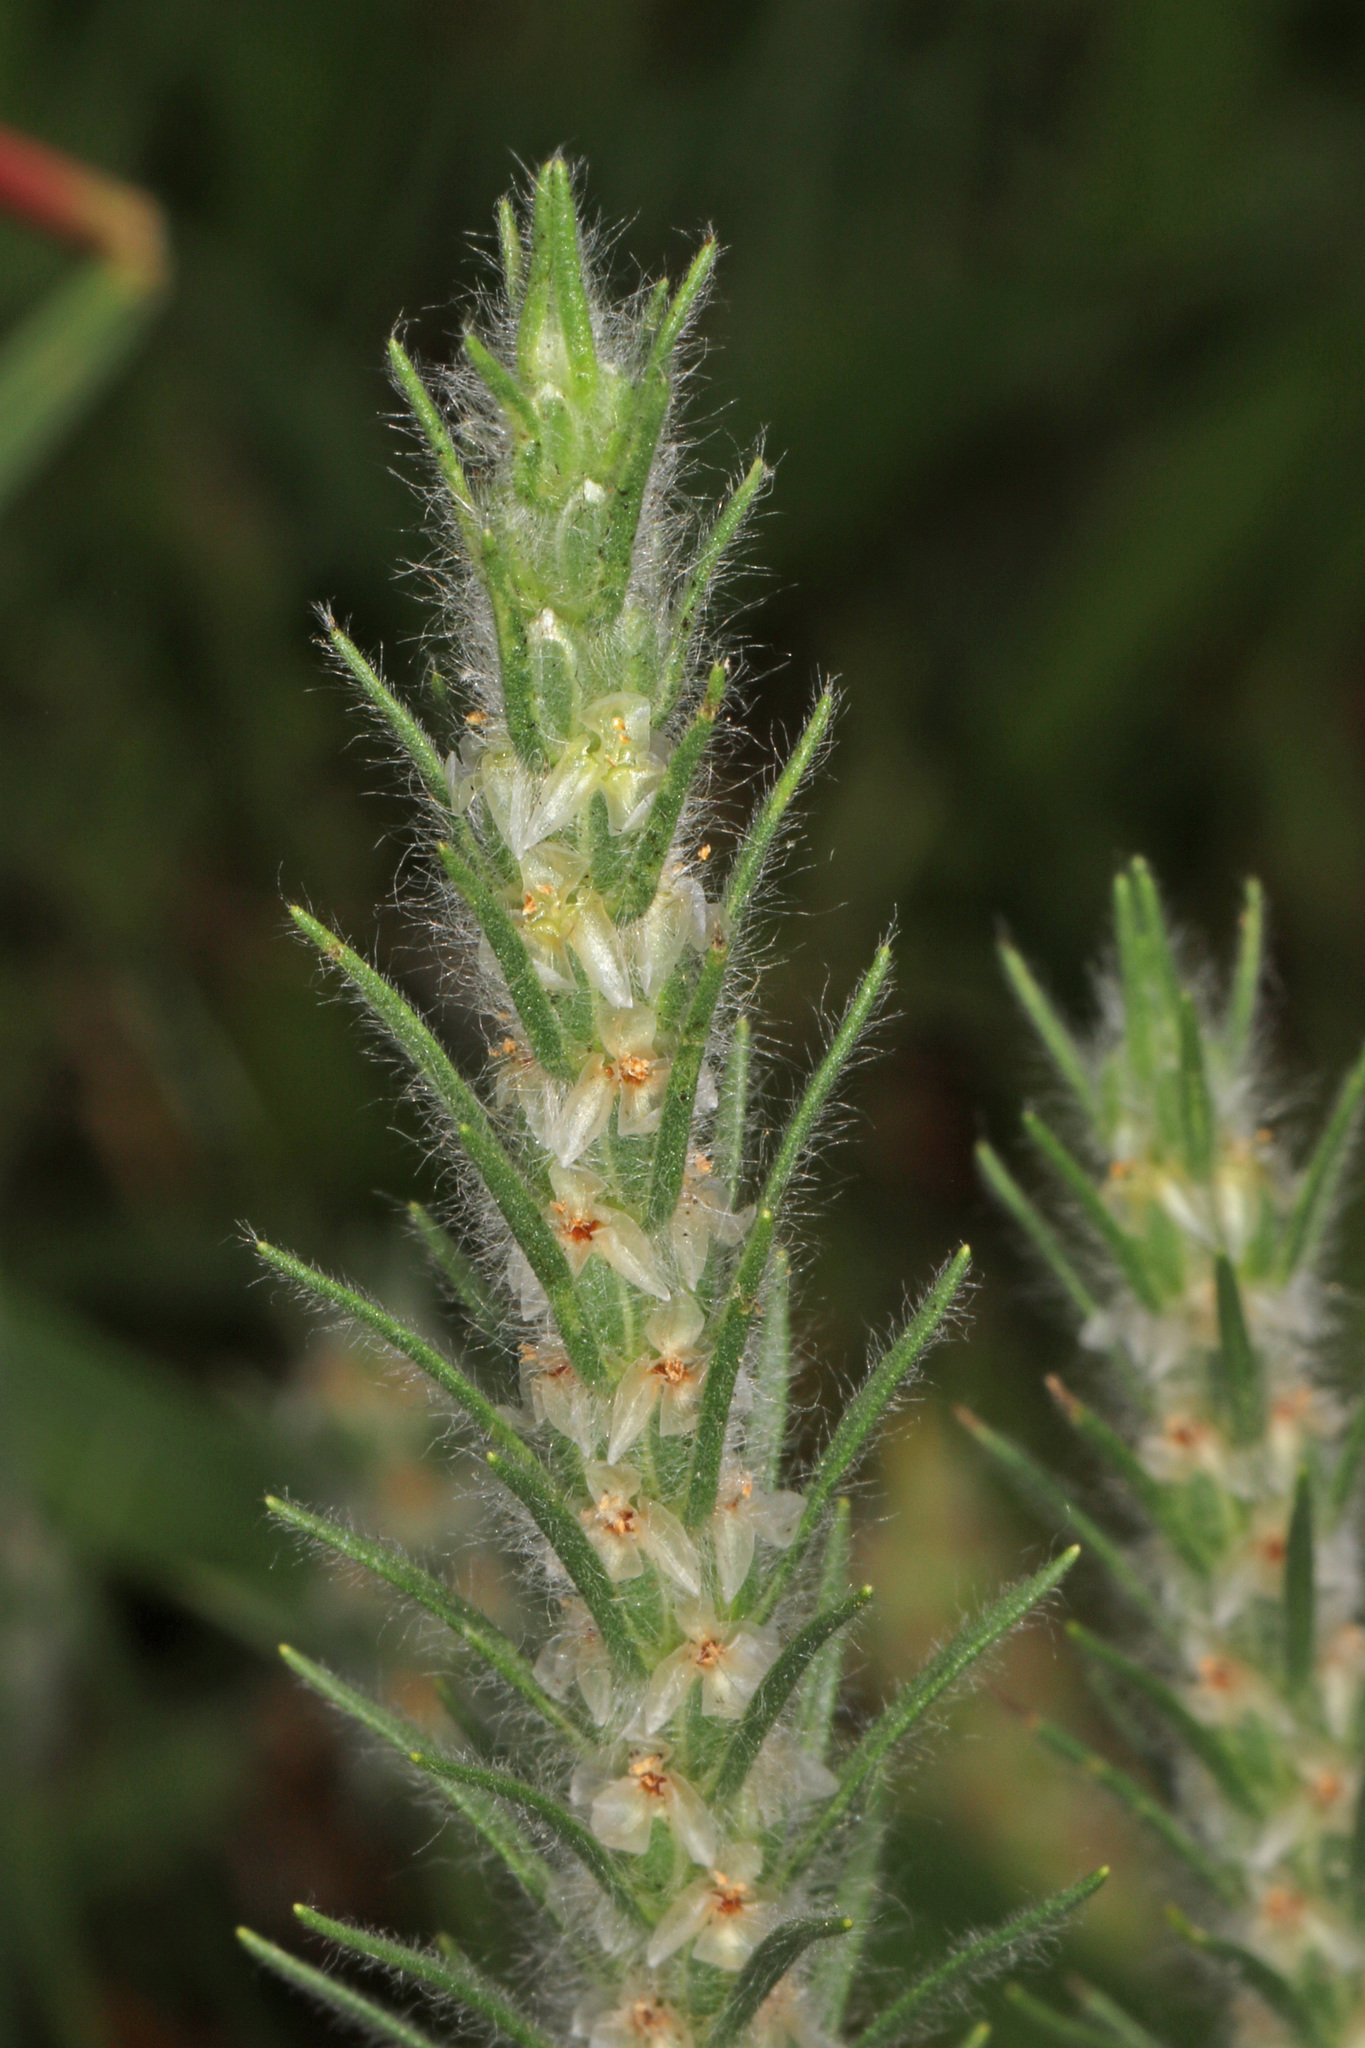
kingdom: Plantae
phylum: Tracheophyta
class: Magnoliopsida
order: Lamiales
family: Plantaginaceae
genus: Plantago
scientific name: Plantago aristata
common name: Bracted plantain
